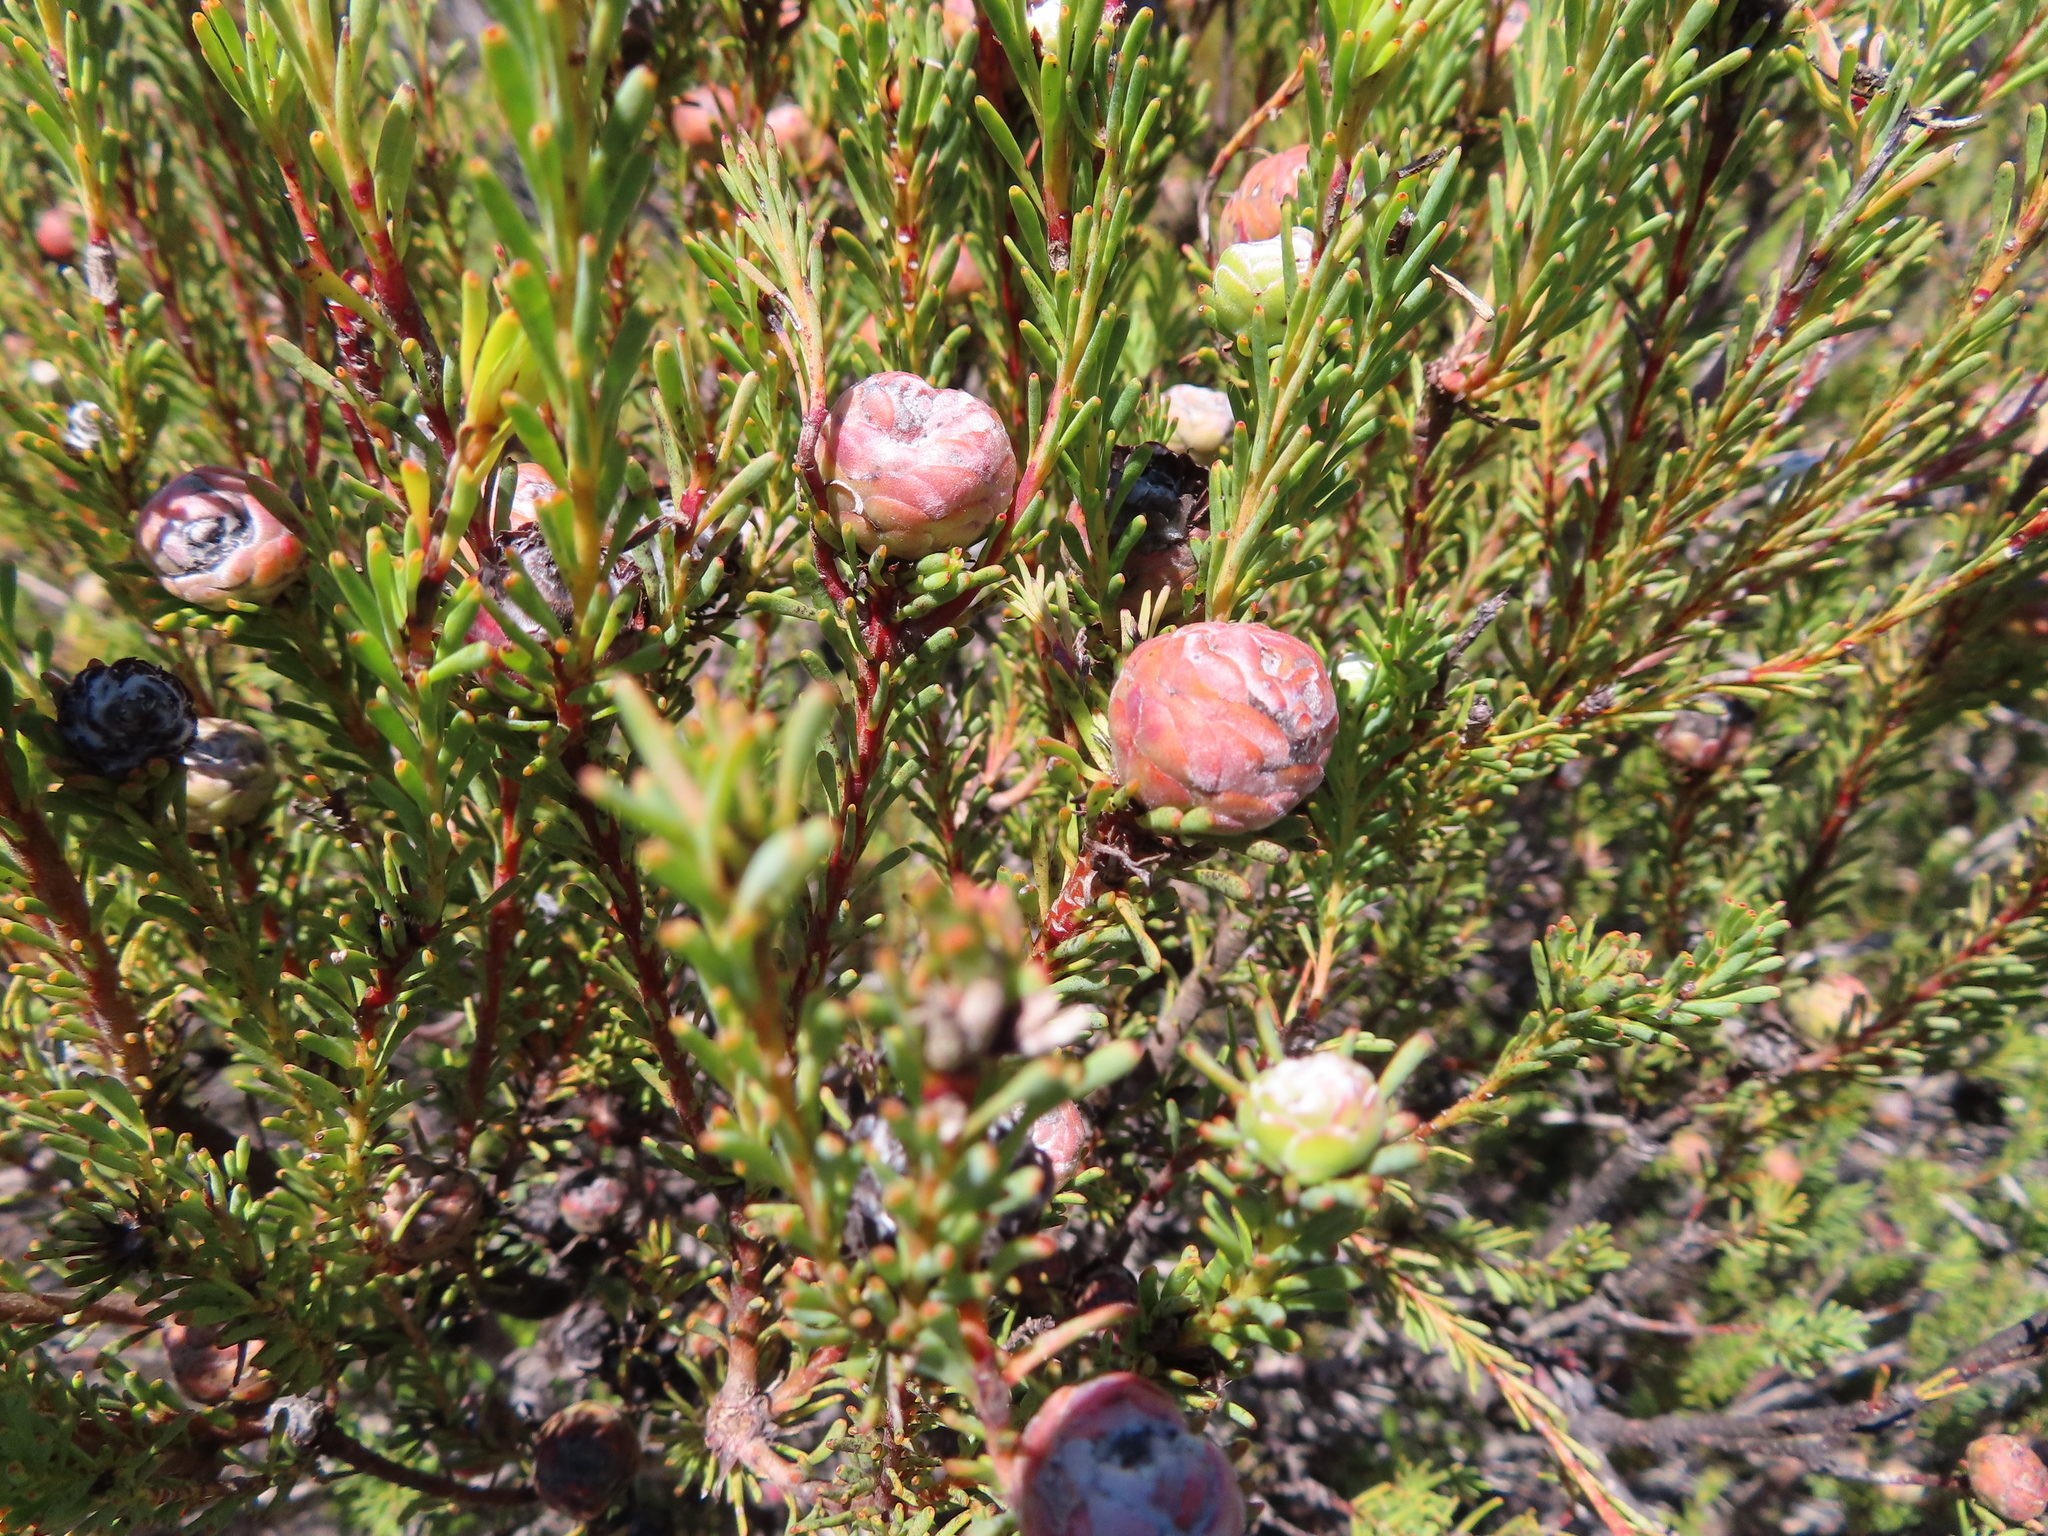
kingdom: Plantae
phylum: Tracheophyta
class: Magnoliopsida
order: Proteales
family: Proteaceae
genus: Leucadendron
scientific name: Leucadendron linifolium
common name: Line-leaf conebush
